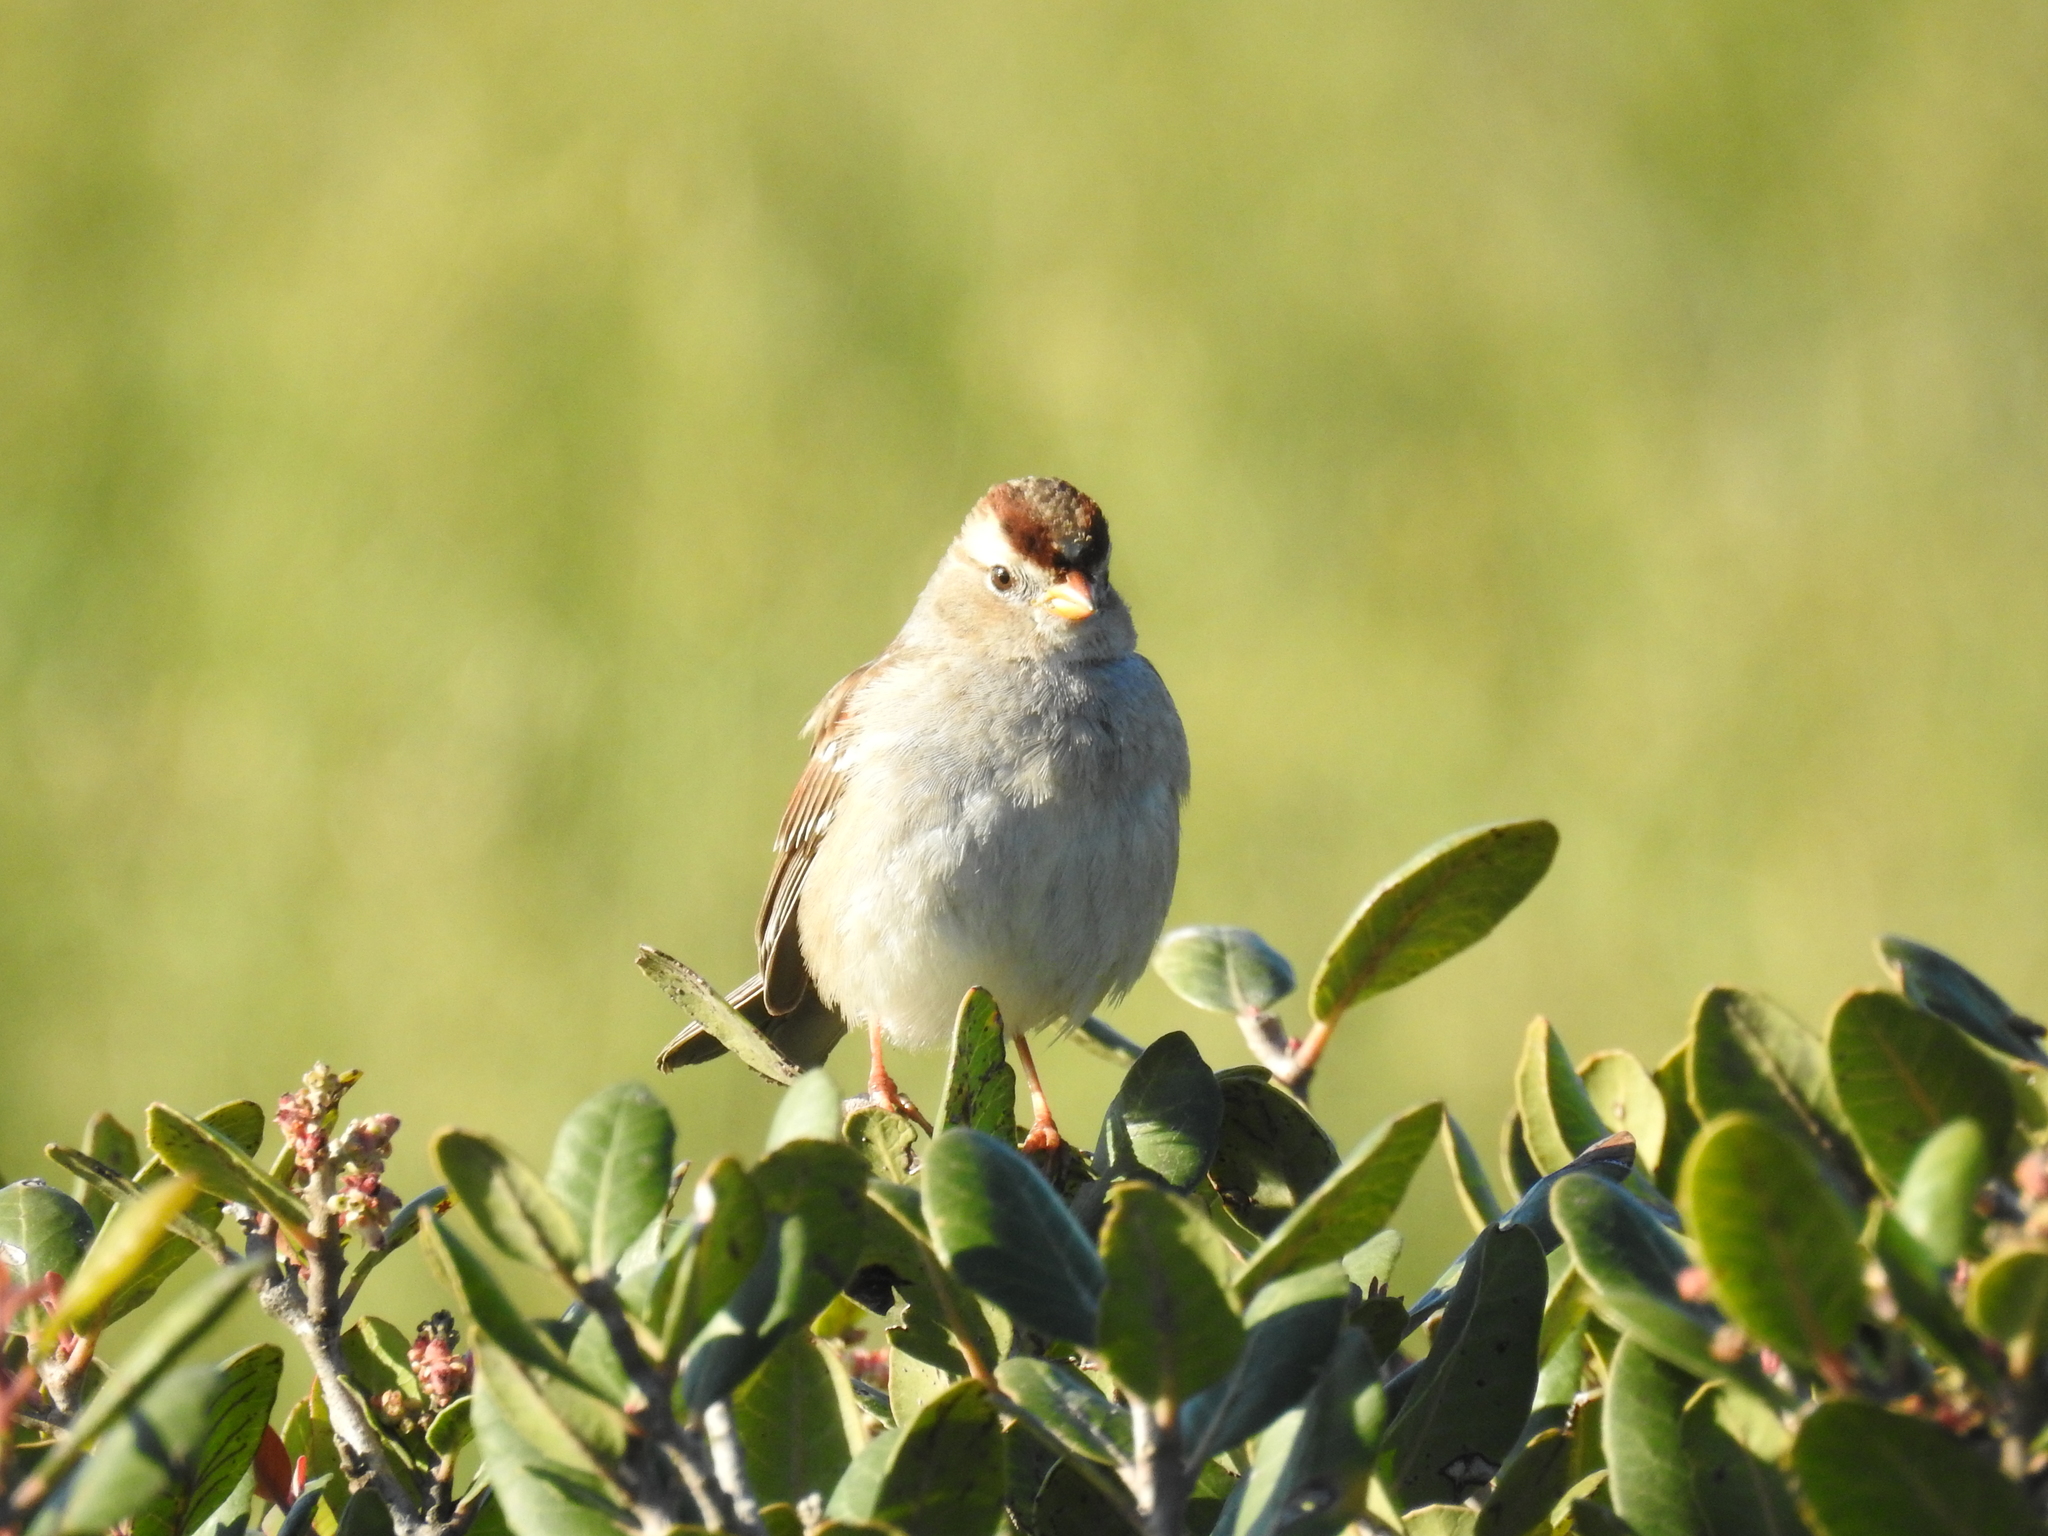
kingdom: Animalia
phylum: Chordata
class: Aves
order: Passeriformes
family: Passerellidae
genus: Zonotrichia
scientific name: Zonotrichia leucophrys
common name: White-crowned sparrow
